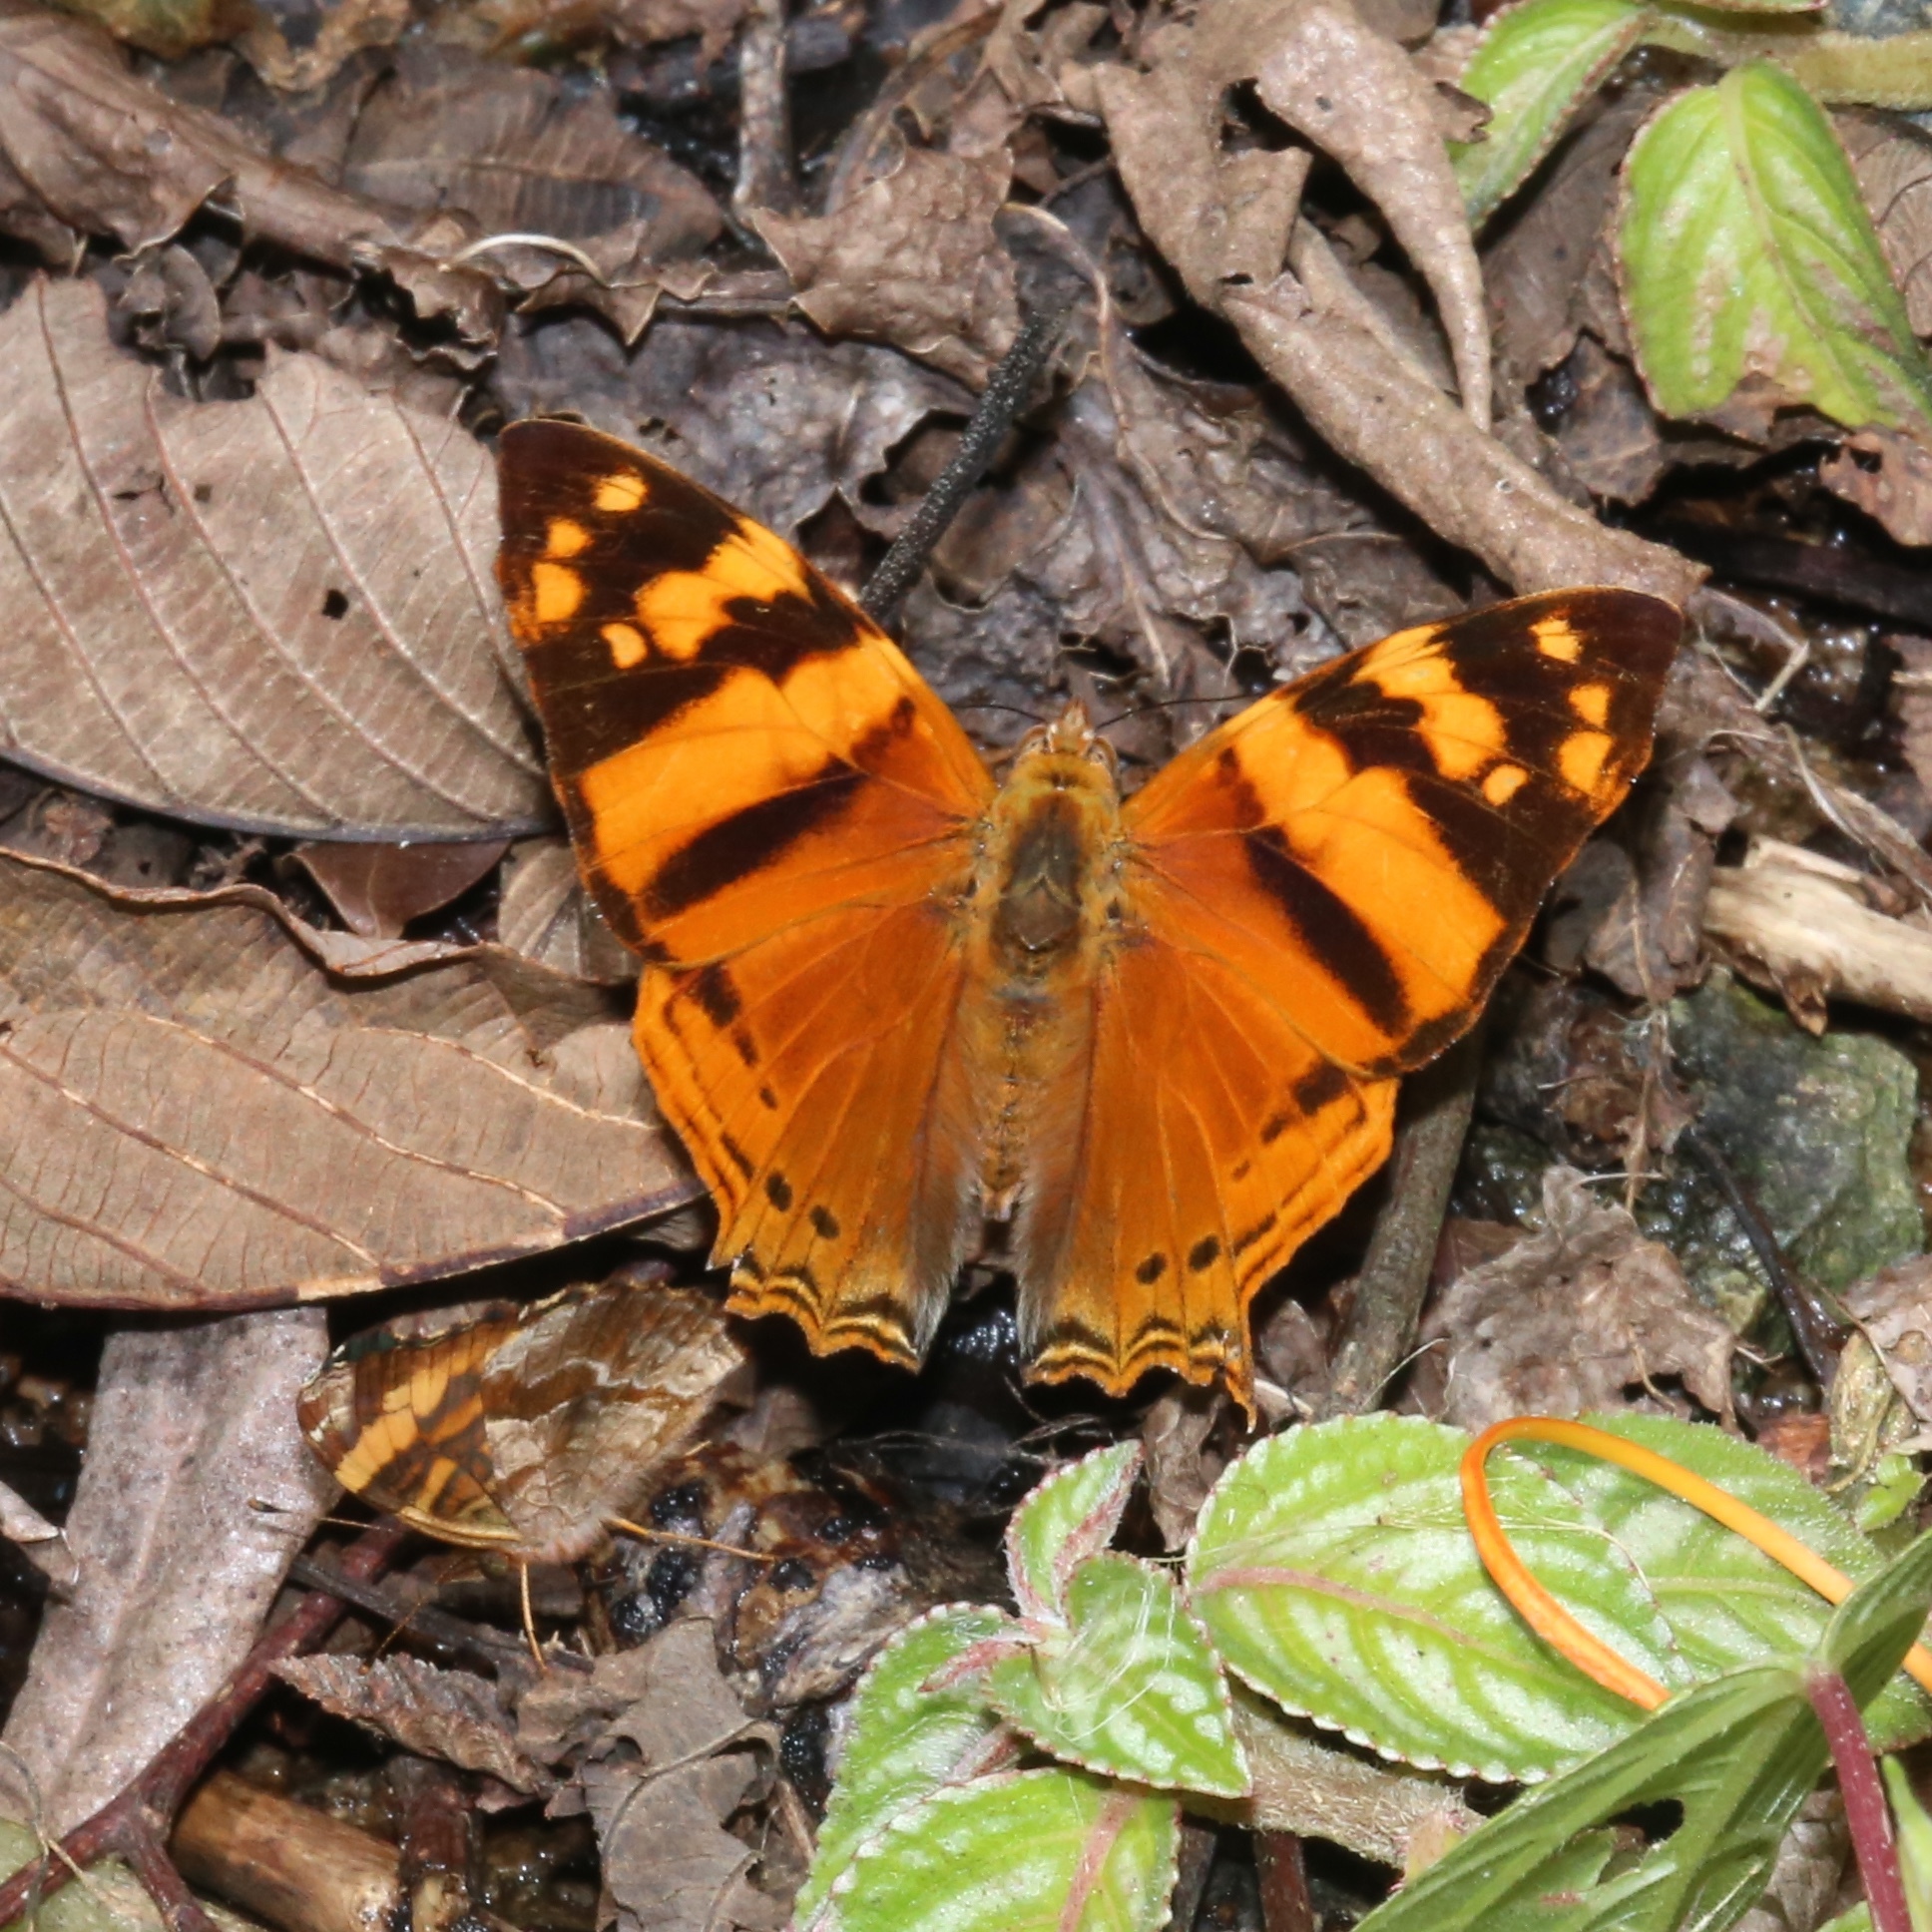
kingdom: Animalia
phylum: Arthropoda
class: Insecta
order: Lepidoptera
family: Nymphalidae
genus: Hypanartia
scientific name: Hypanartia lethe
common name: Orange mapwing
